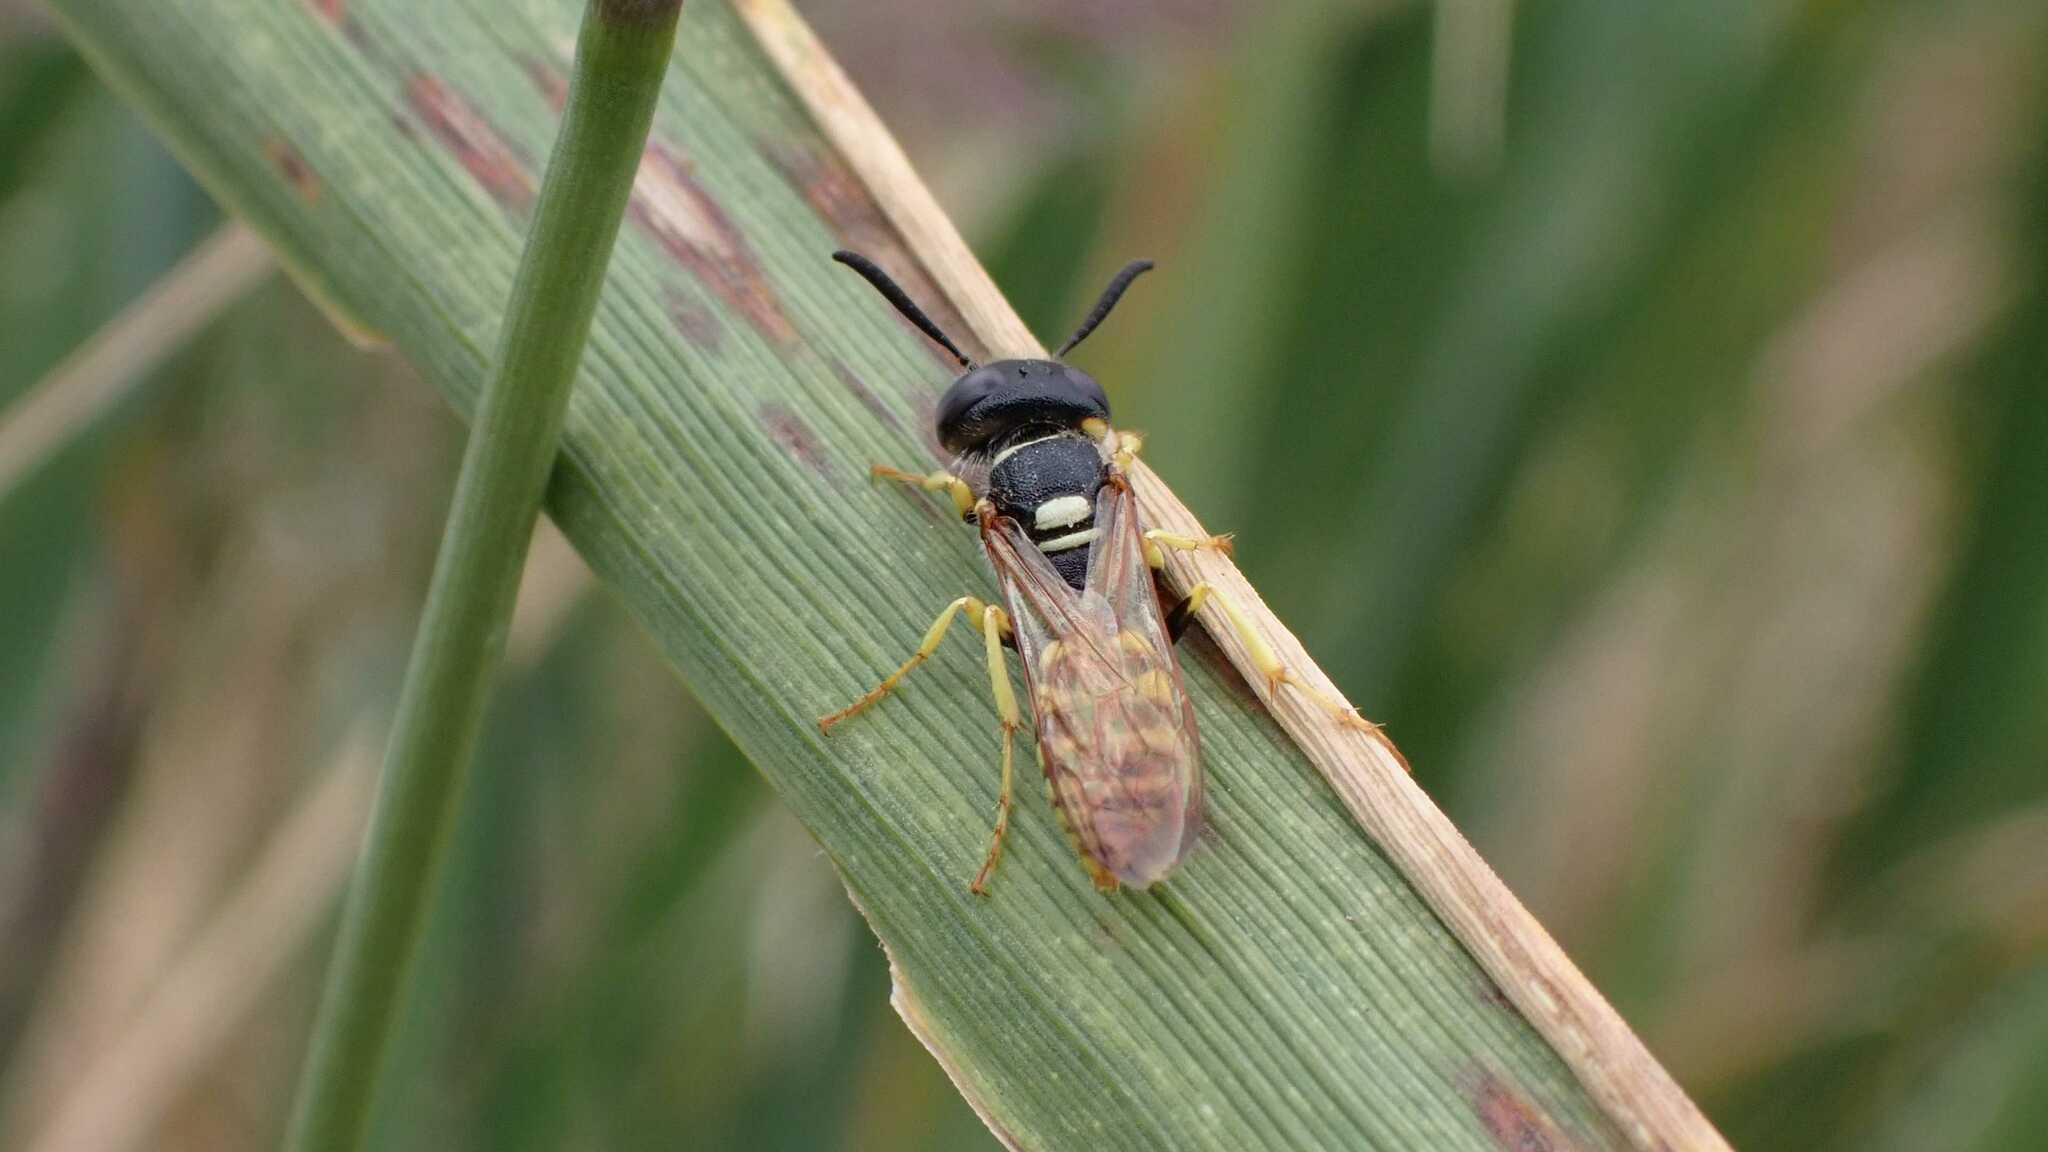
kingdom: Animalia
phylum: Arthropoda
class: Insecta
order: Hymenoptera
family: Crabronidae
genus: Philanthus
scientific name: Philanthus triangulum
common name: Bee wolf
